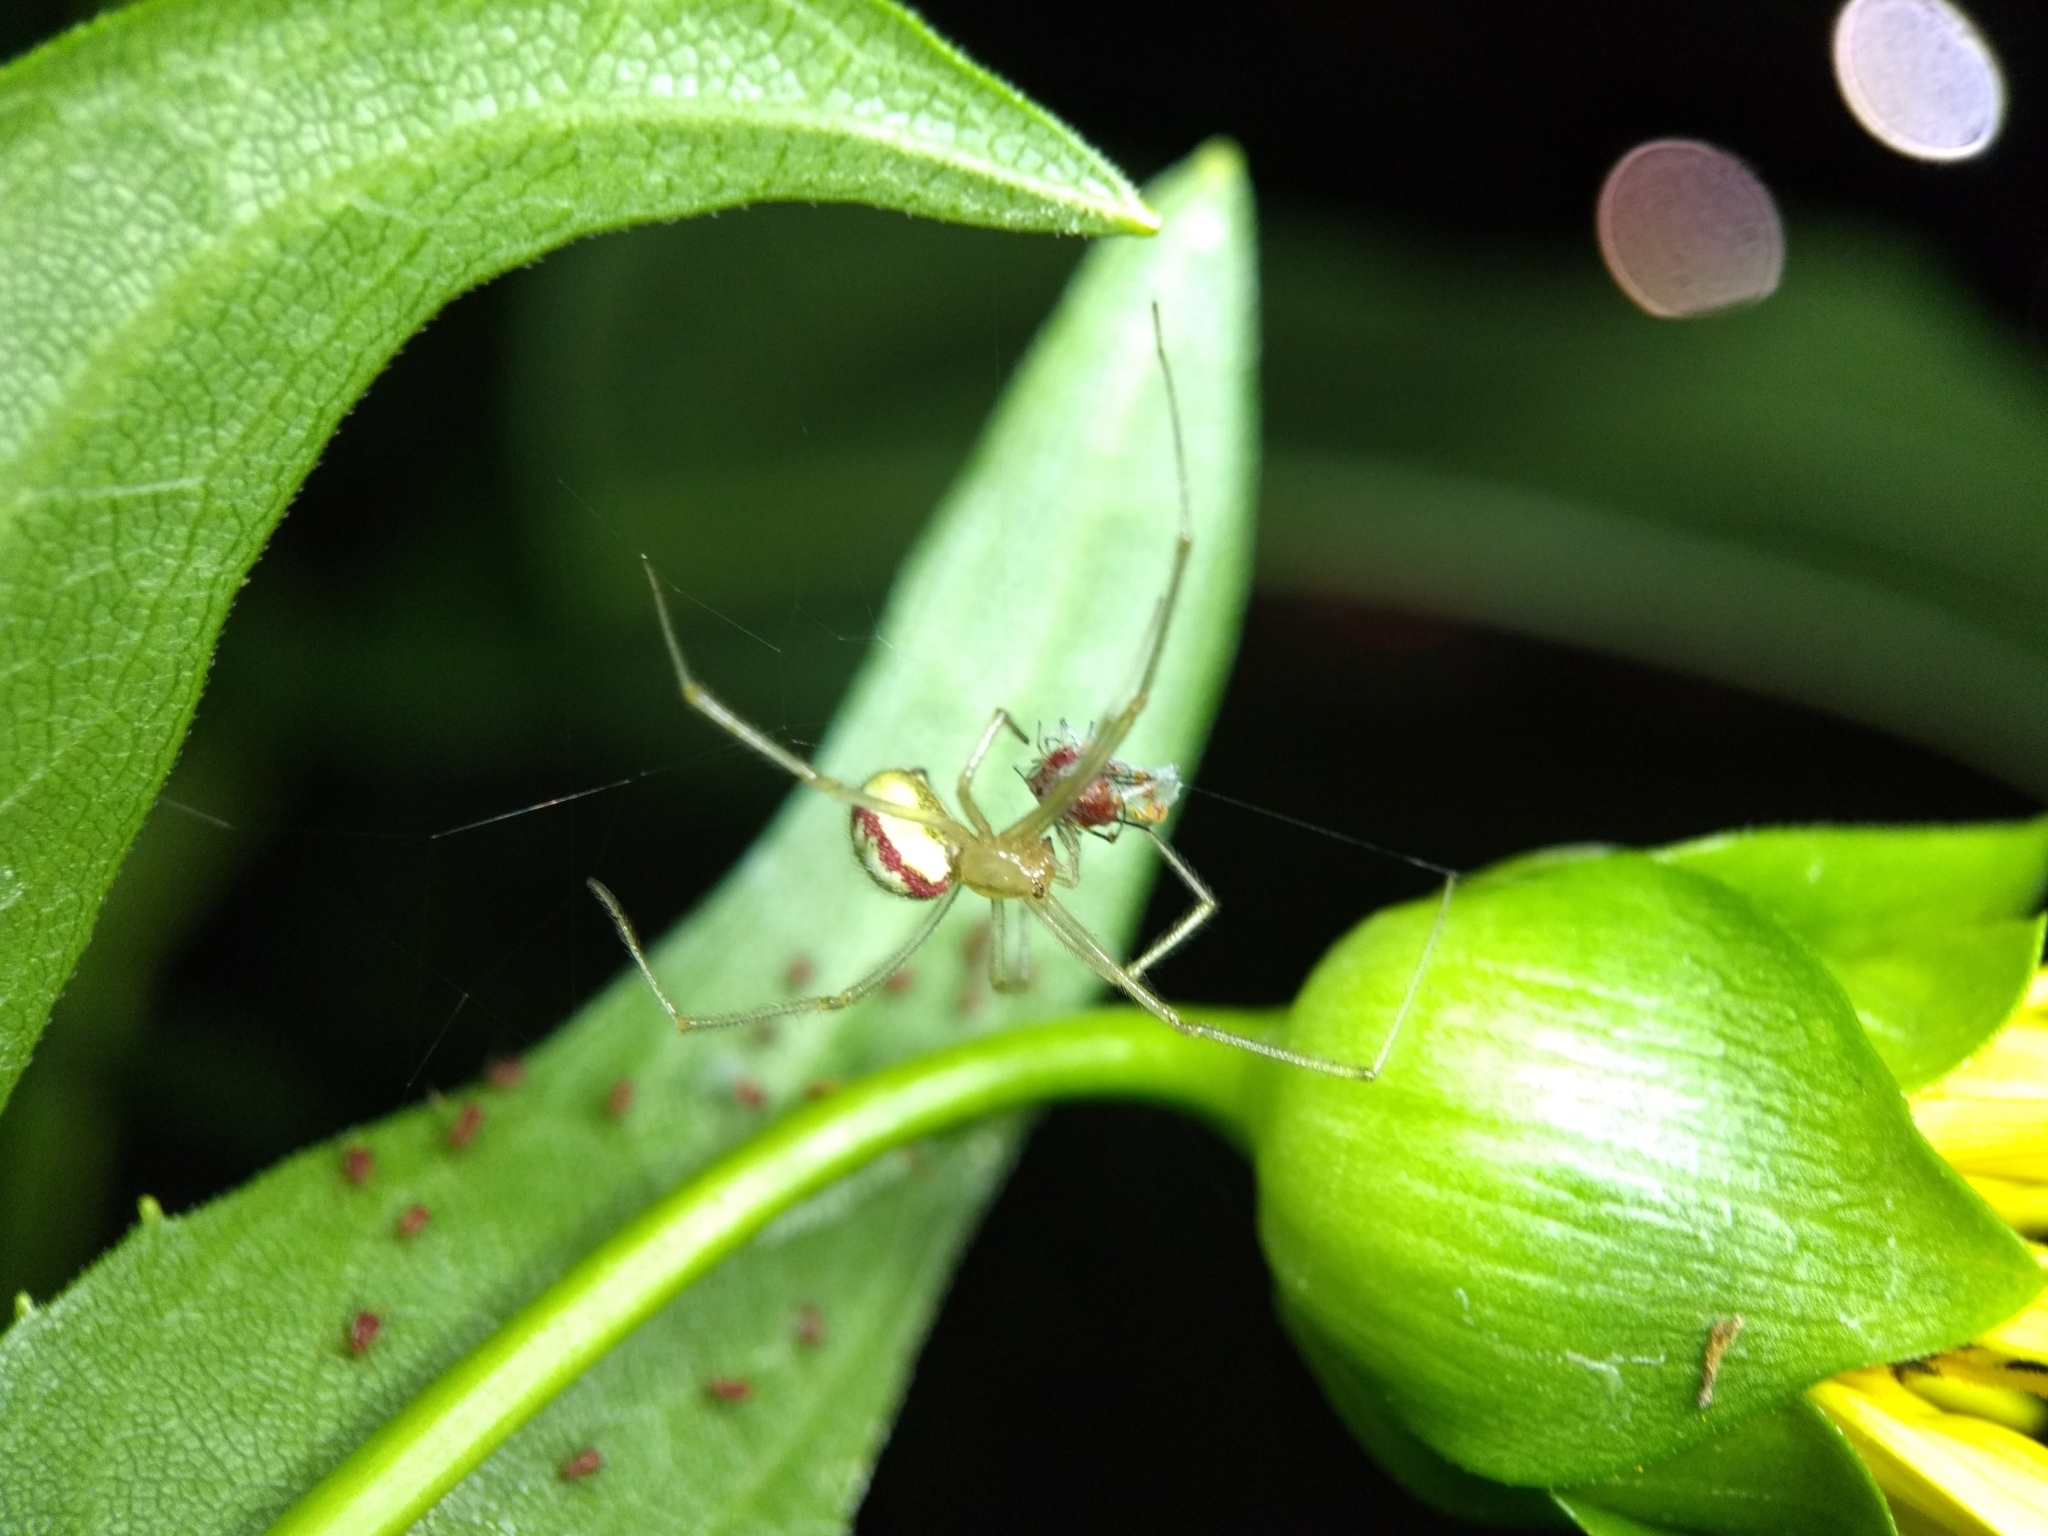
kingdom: Animalia
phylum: Arthropoda
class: Arachnida
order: Araneae
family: Theridiidae
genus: Enoplognatha
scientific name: Enoplognatha ovata
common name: Common candy-striped spider
